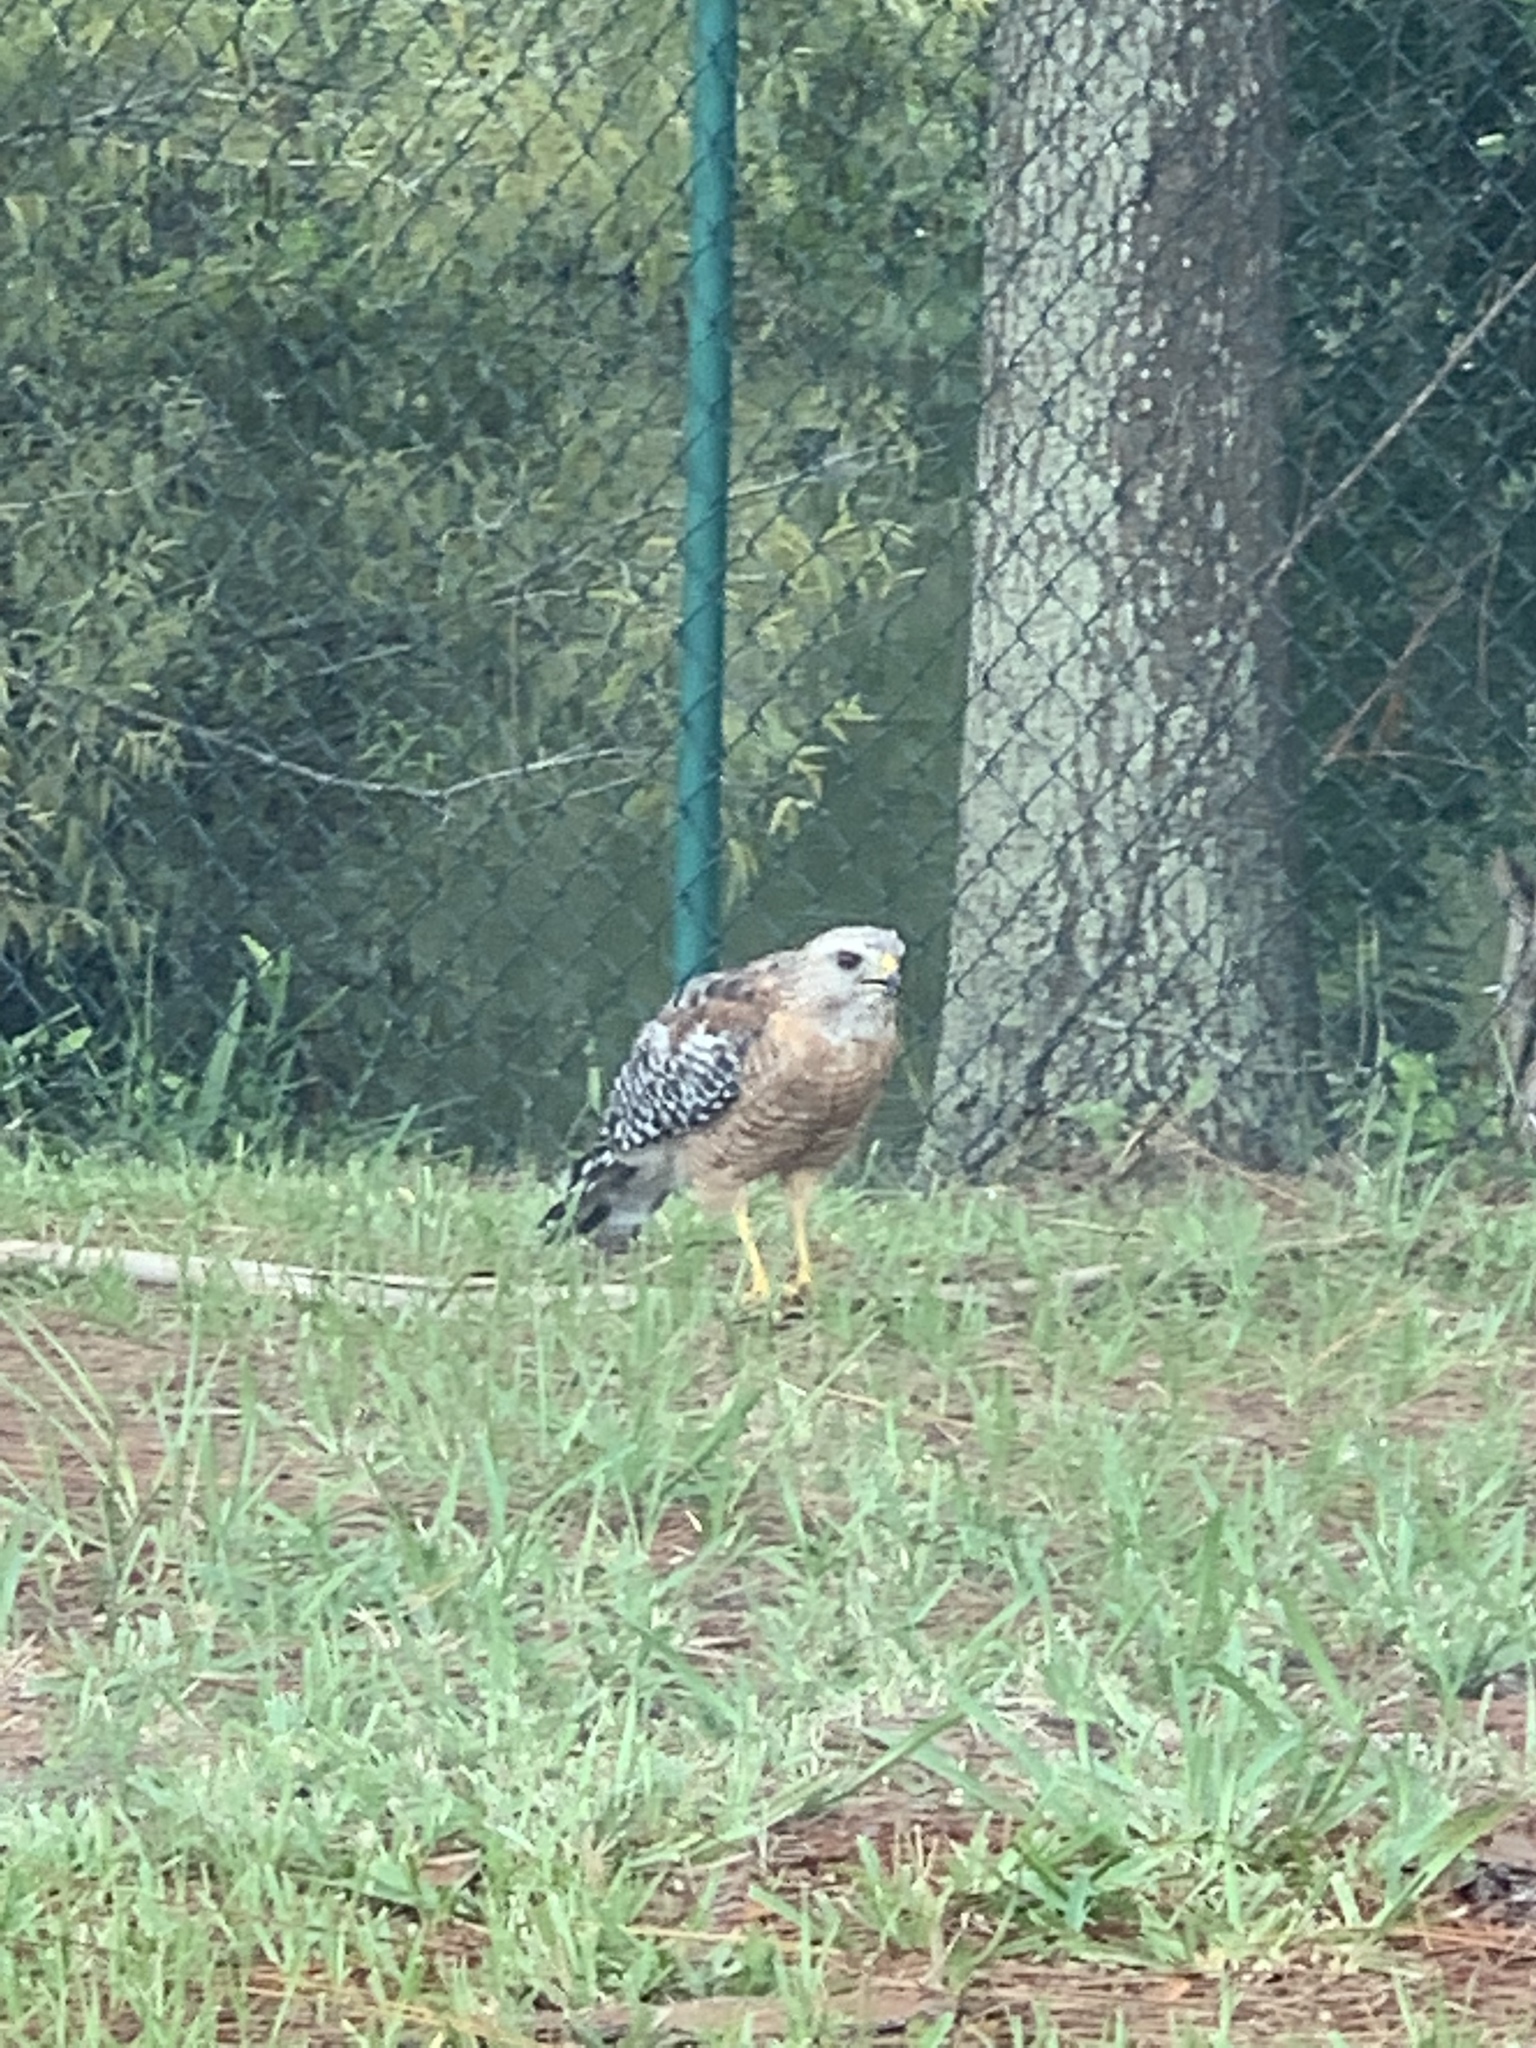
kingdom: Animalia
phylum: Chordata
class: Aves
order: Accipitriformes
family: Accipitridae
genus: Buteo
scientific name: Buteo lineatus
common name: Red-shouldered hawk
